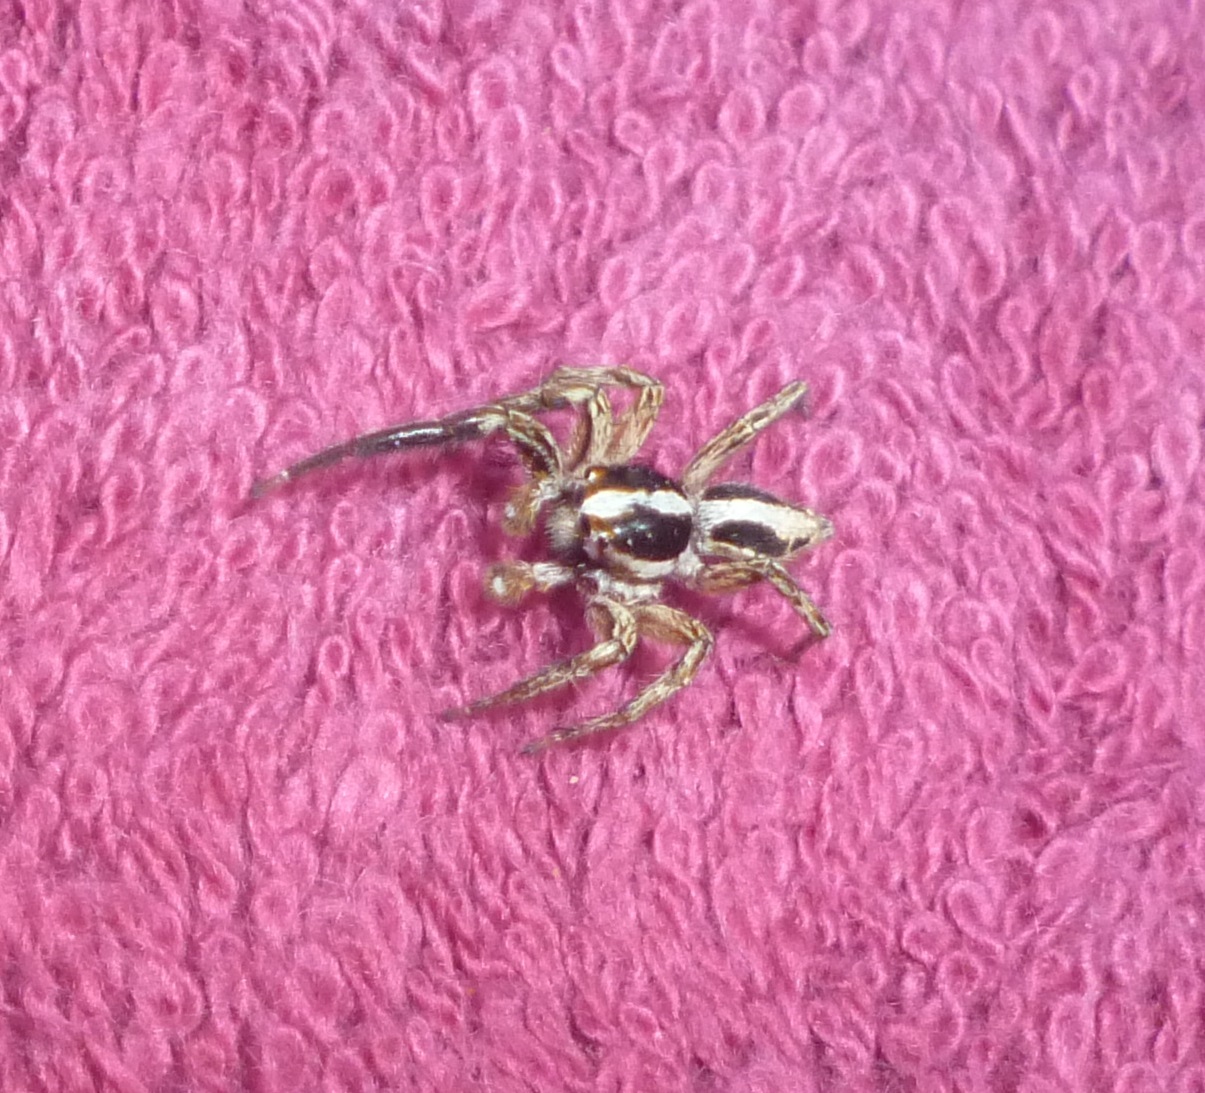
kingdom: Animalia
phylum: Arthropoda
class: Arachnida
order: Araneae
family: Salticidae
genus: Plexippus
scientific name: Plexippus paykulli
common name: Pantropical jumper
